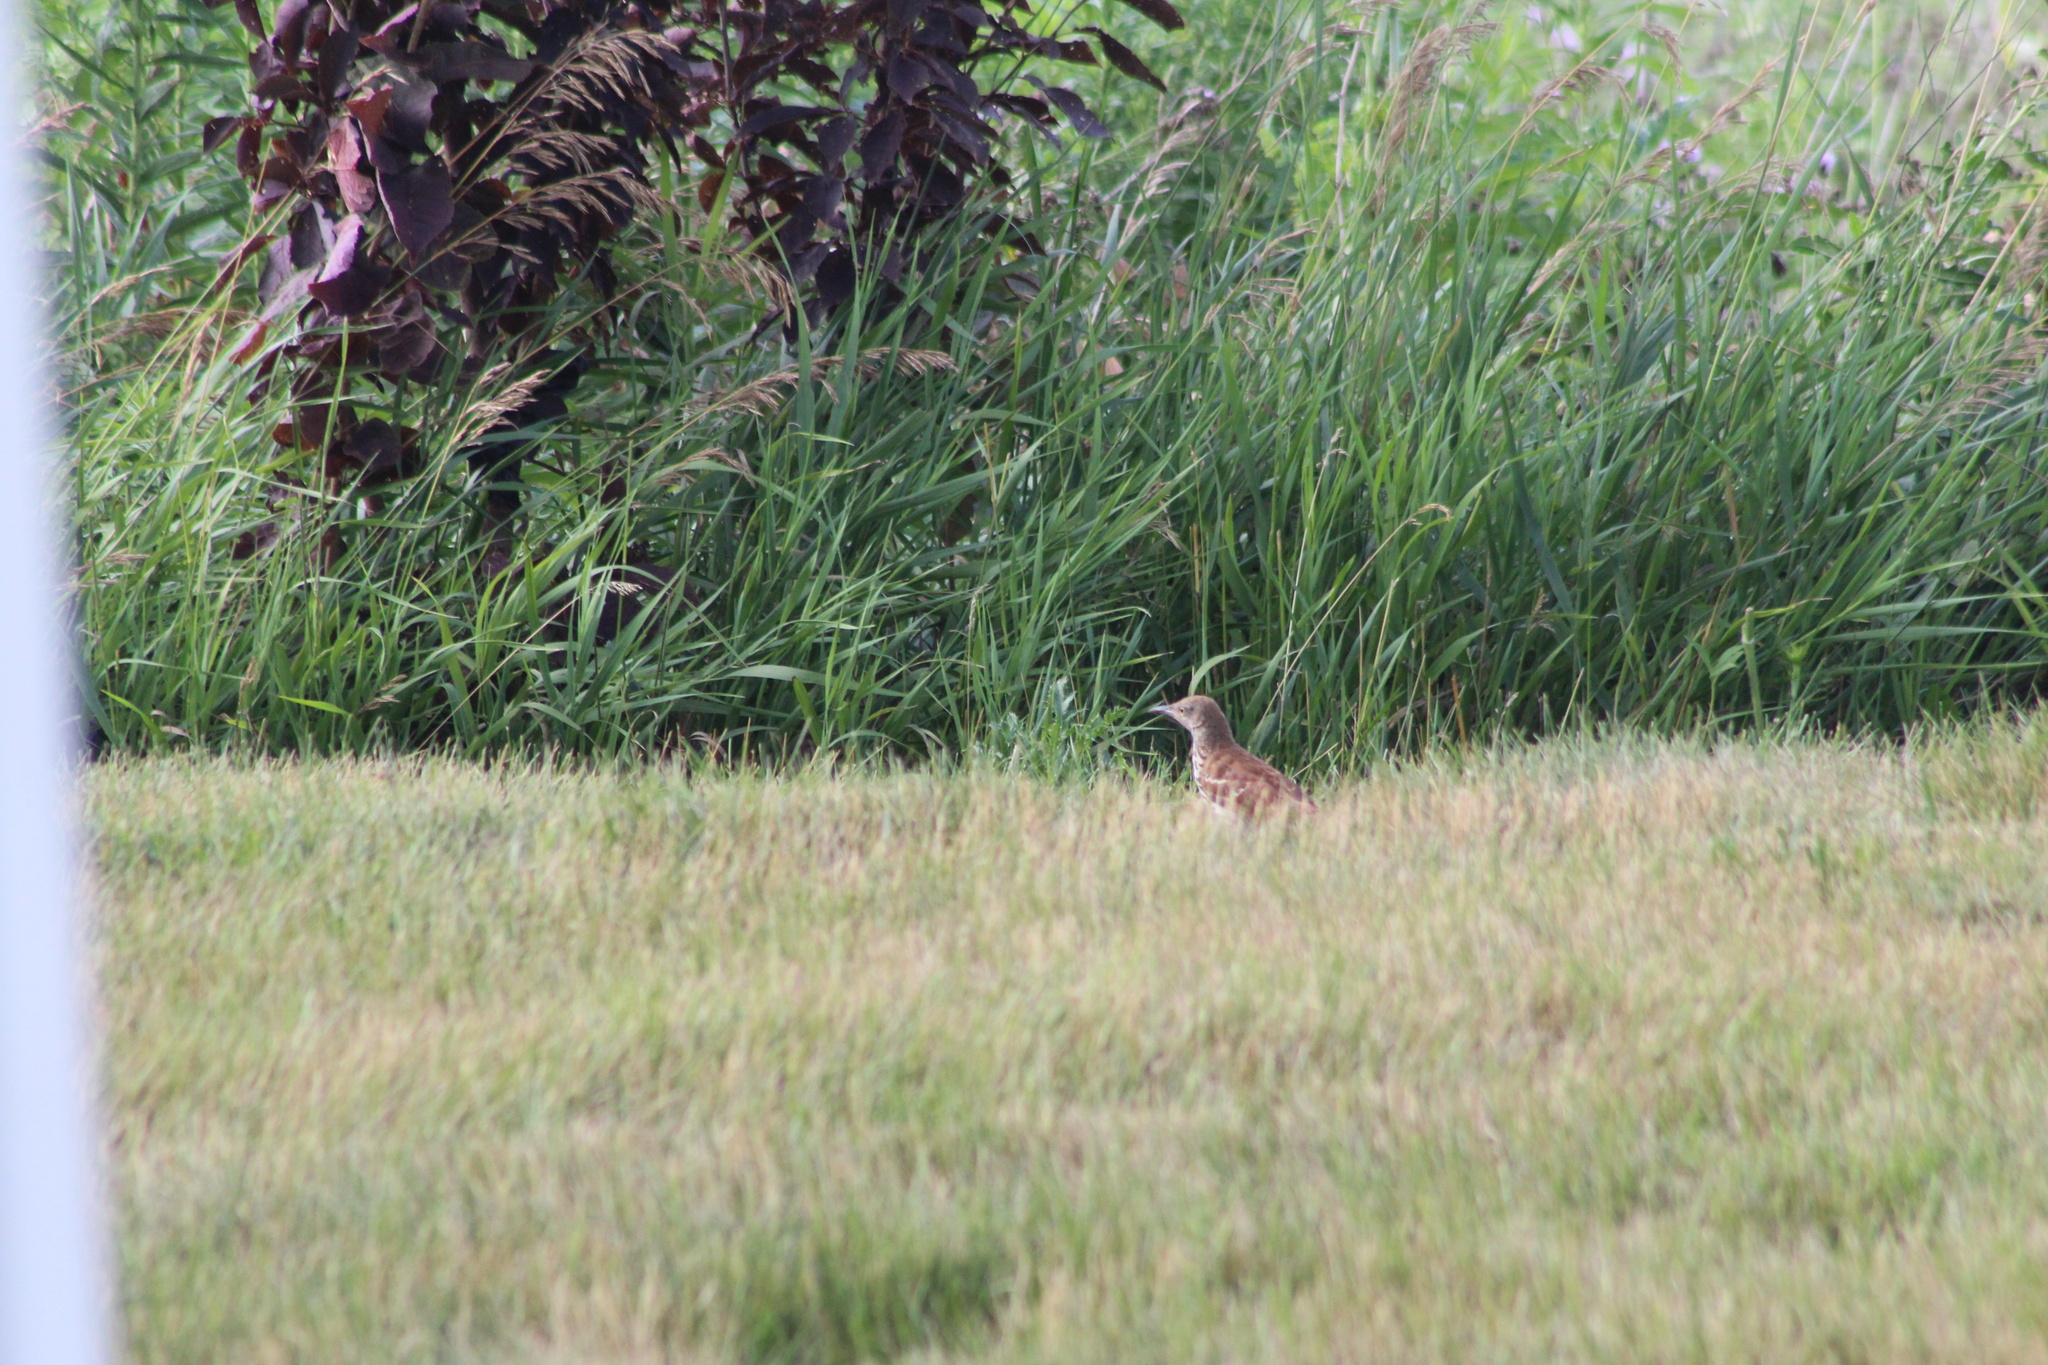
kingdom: Animalia
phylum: Chordata
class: Aves
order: Passeriformes
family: Mimidae
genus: Toxostoma
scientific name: Toxostoma rufum
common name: Brown thrasher
